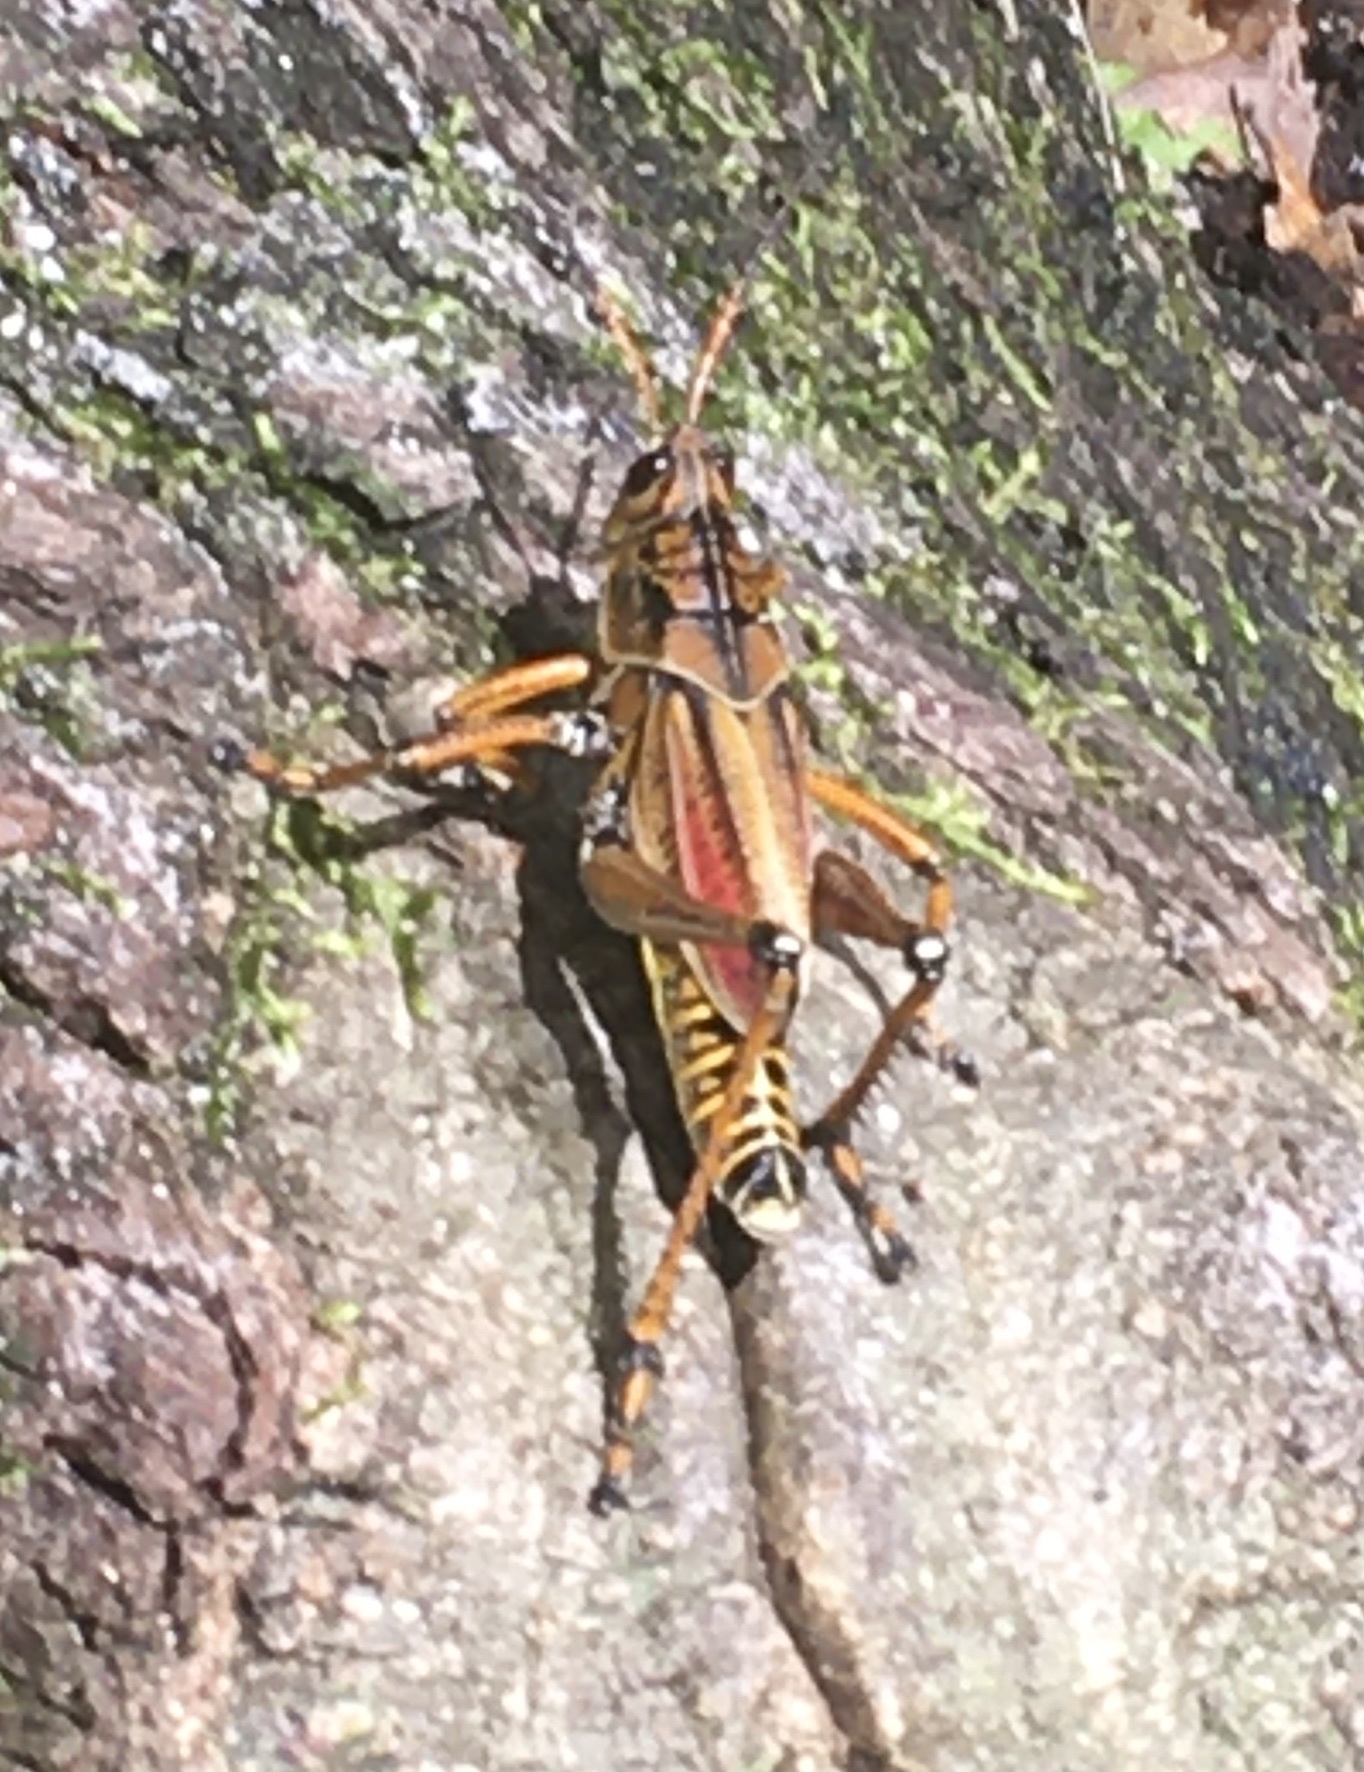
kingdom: Animalia
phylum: Arthropoda
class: Insecta
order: Orthoptera
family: Romaleidae
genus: Romalea
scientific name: Romalea microptera
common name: Eastern lubber grasshopper
